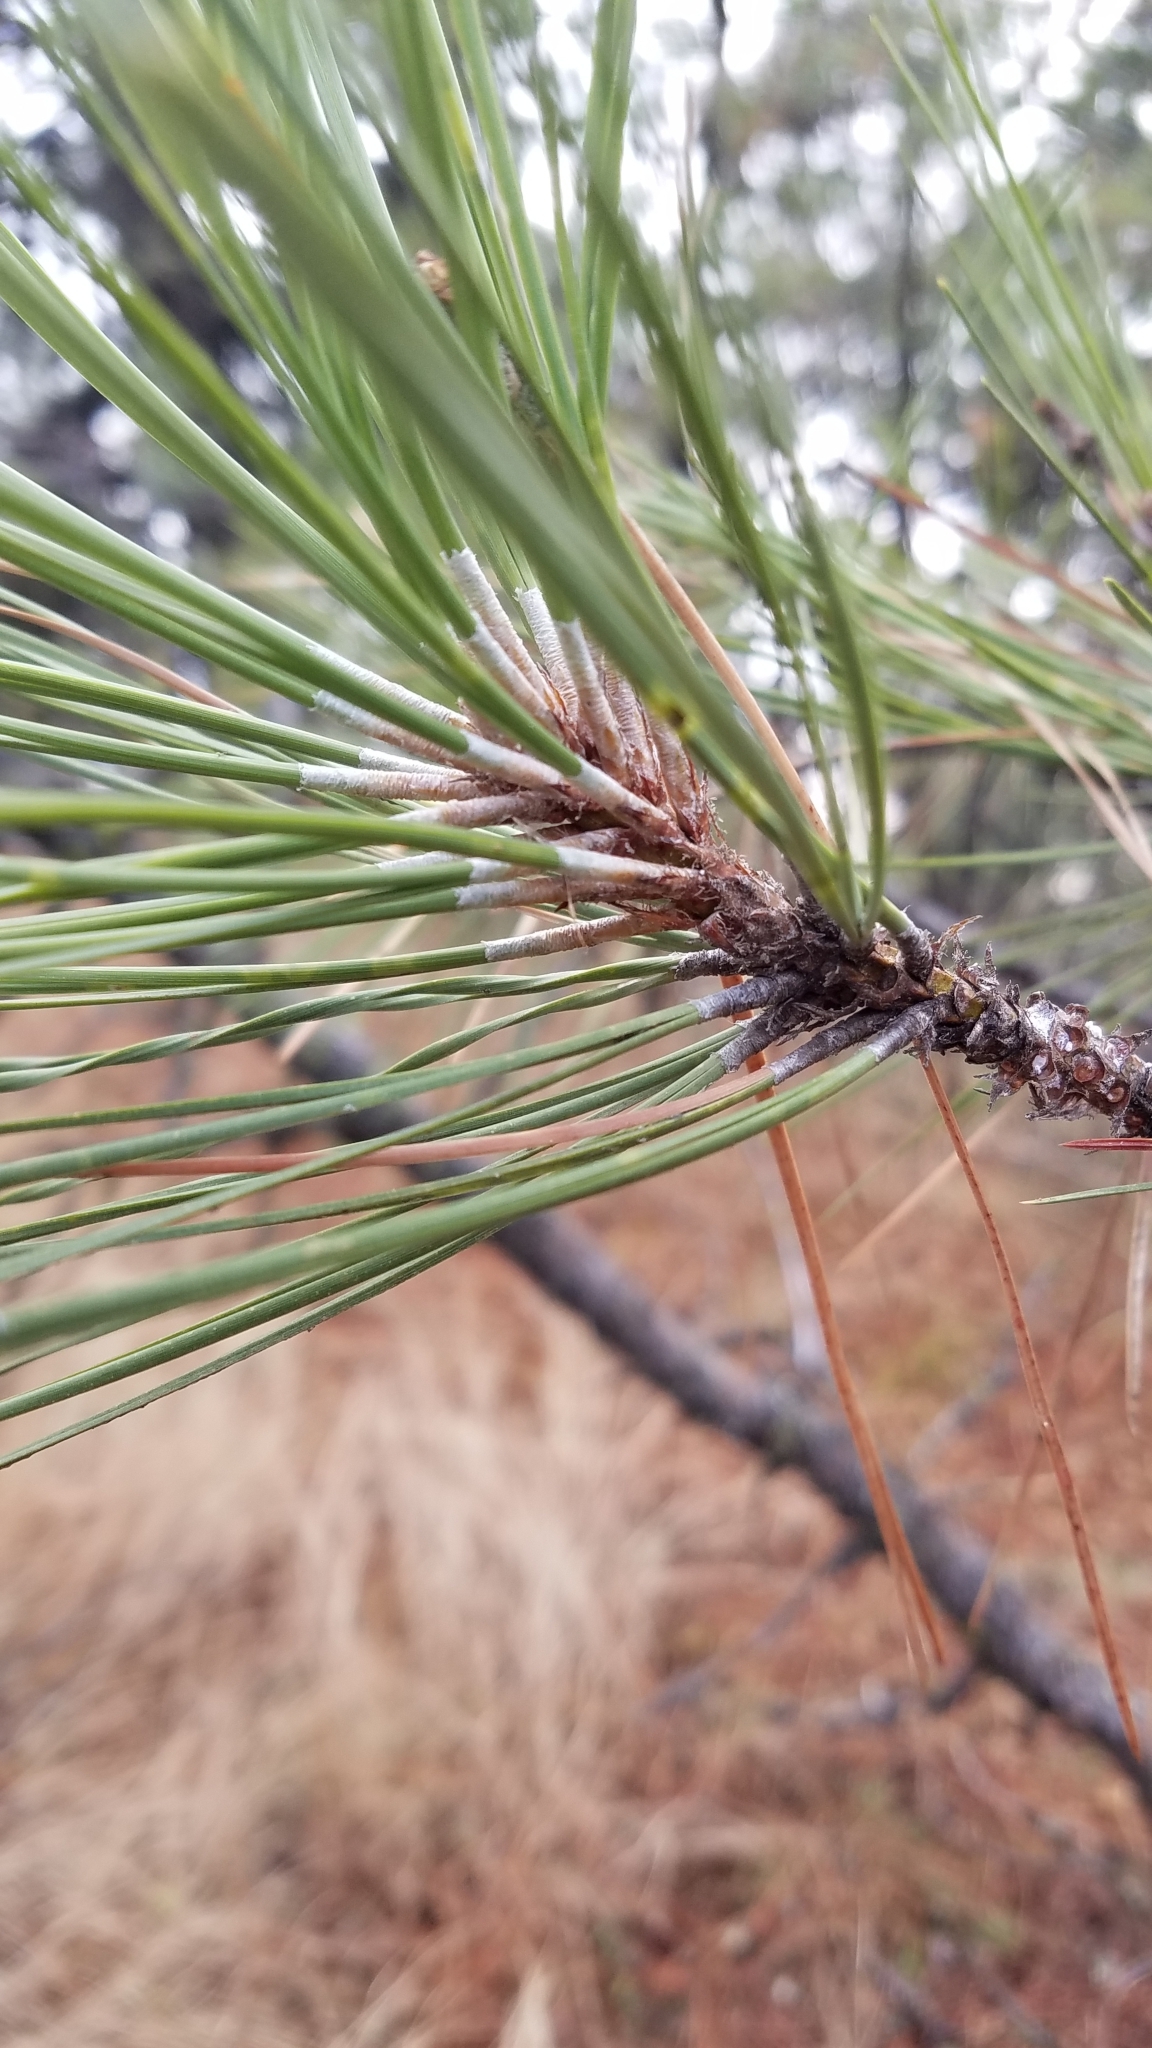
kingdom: Plantae
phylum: Tracheophyta
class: Pinopsida
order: Pinales
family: Pinaceae
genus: Pinus
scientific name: Pinus ponderosa
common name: Western yellow-pine
